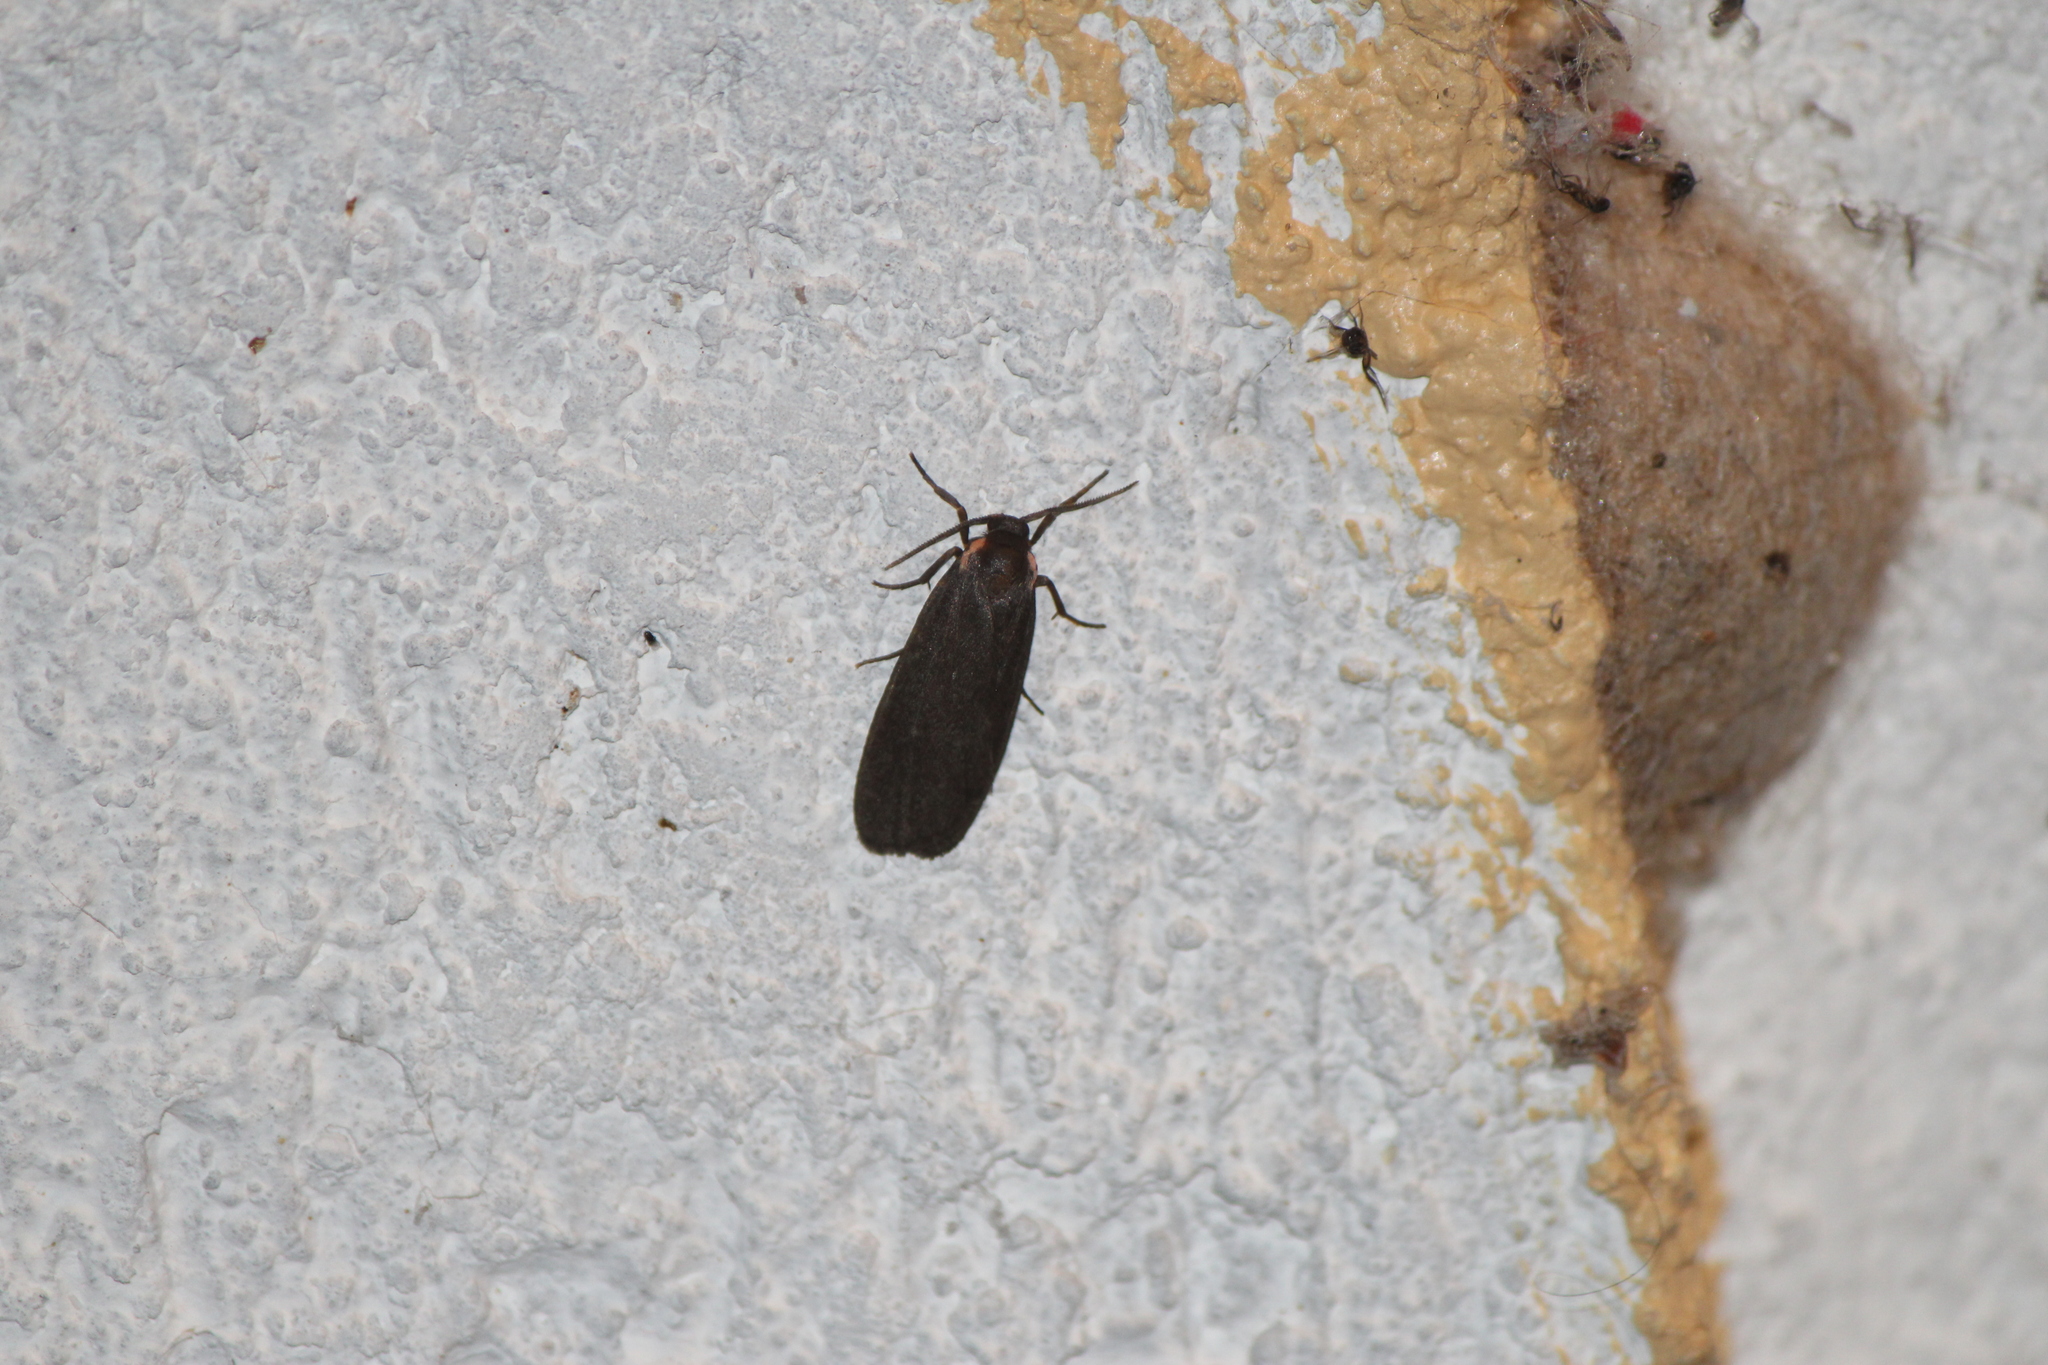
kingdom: Animalia
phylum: Arthropoda
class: Insecta
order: Lepidoptera
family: Erebidae
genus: Hypoprepia
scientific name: Hypoprepia inculta
